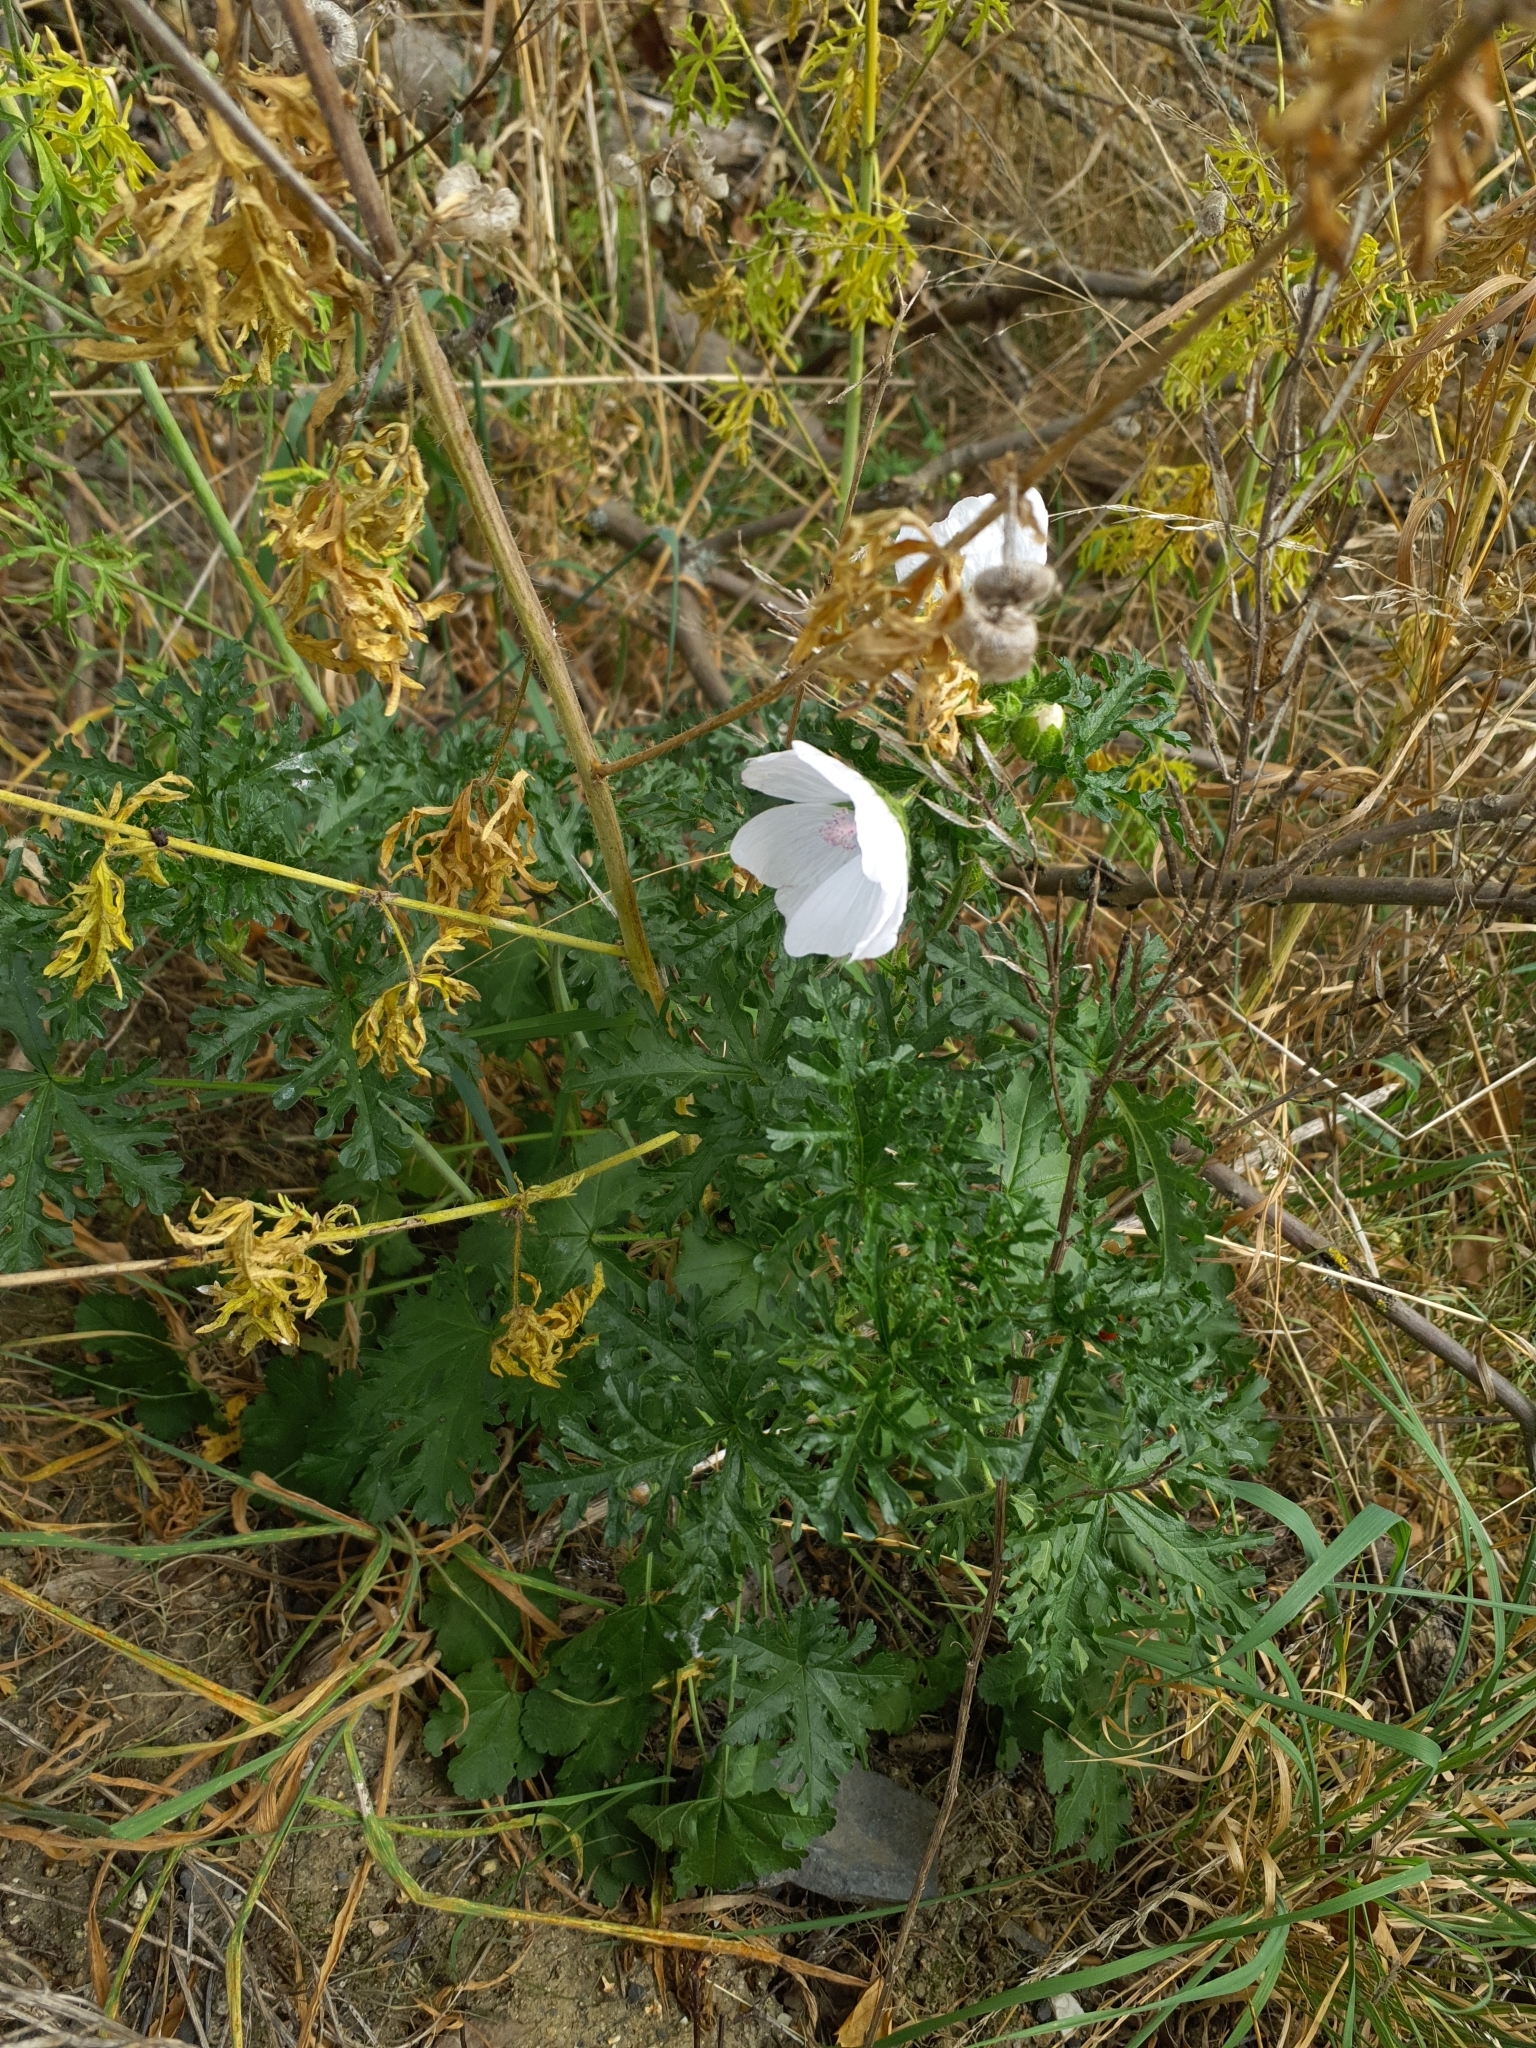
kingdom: Plantae
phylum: Tracheophyta
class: Magnoliopsida
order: Malvales
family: Malvaceae
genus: Malva
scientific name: Malva moschata
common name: Musk mallow
